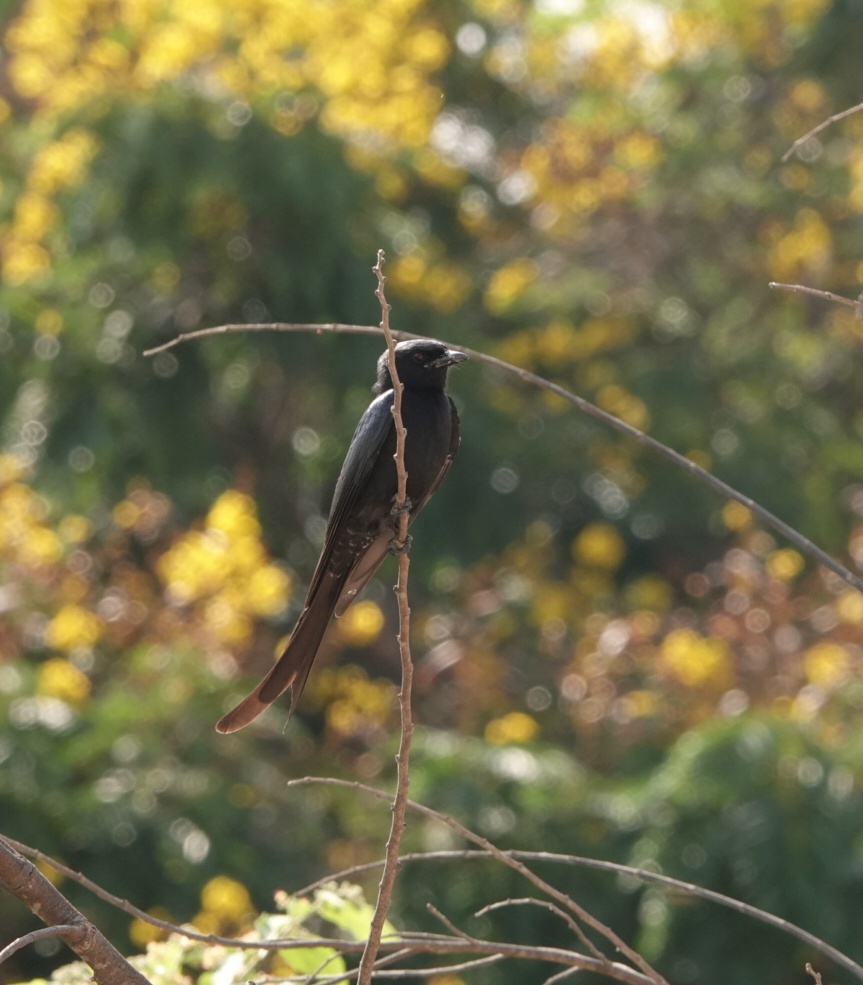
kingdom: Animalia
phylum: Chordata
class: Aves
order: Passeriformes
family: Dicruridae
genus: Dicrurus
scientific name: Dicrurus macrocercus
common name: Black drongo
